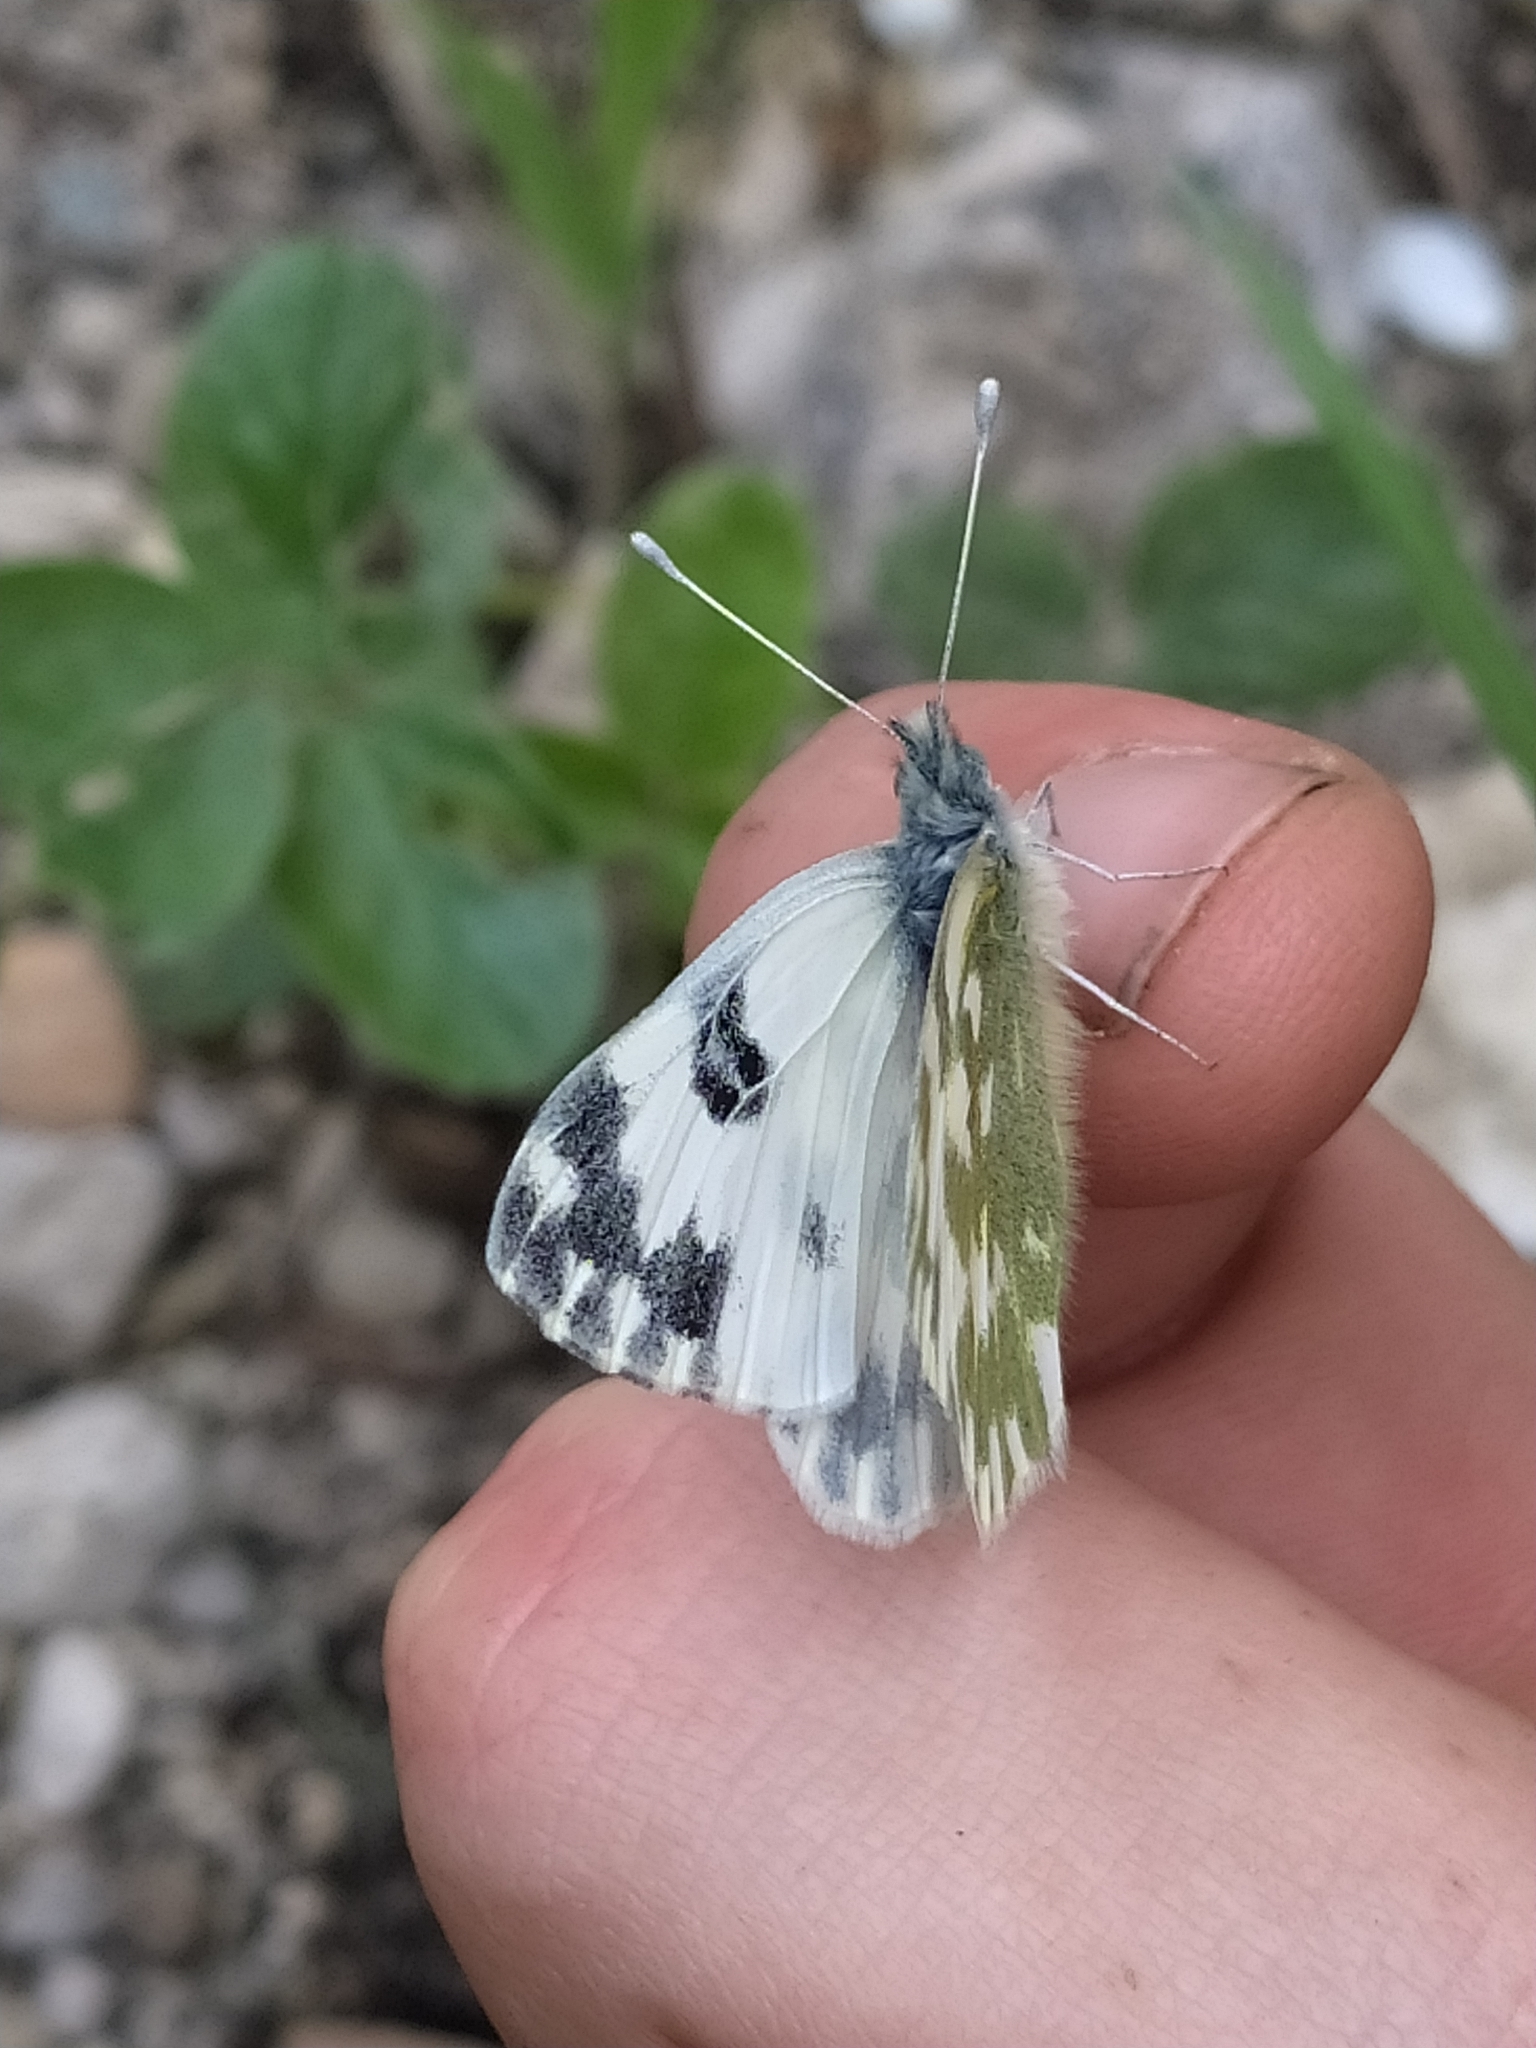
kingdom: Animalia
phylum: Arthropoda
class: Insecta
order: Lepidoptera
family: Pieridae
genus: Pontia
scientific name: Pontia edusa
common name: Eastern bath white
